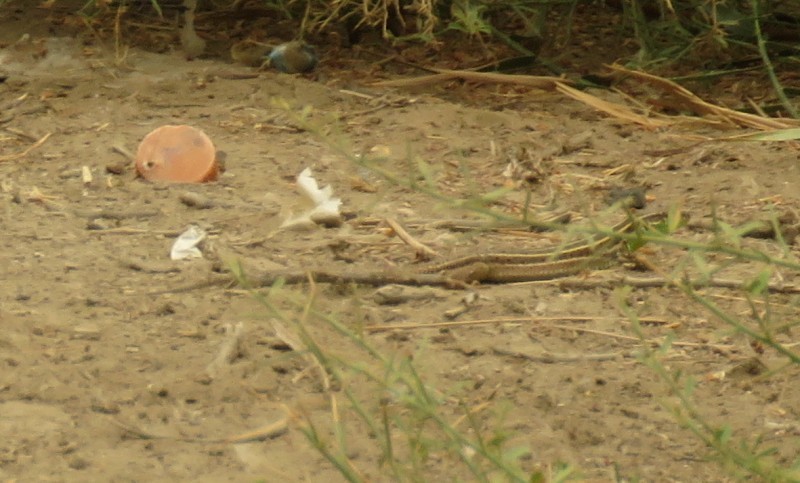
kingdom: Animalia
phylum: Chordata
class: Squamata
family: Lacertidae
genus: Lacerta
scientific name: Lacerta strigata
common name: Caspian green lizard
